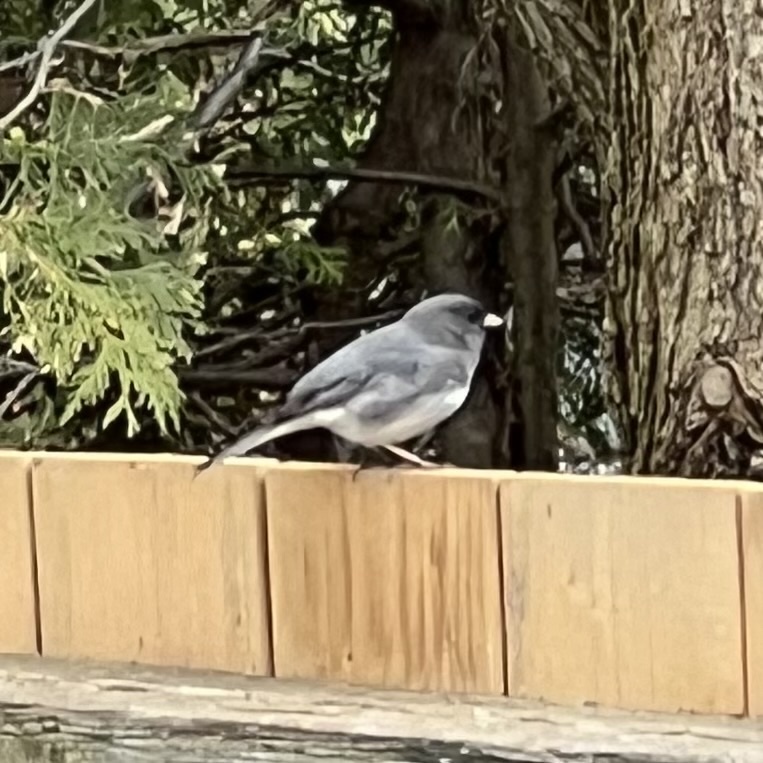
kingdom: Animalia
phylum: Chordata
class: Aves
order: Passeriformes
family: Passerellidae
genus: Junco
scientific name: Junco hyemalis
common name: Dark-eyed junco
